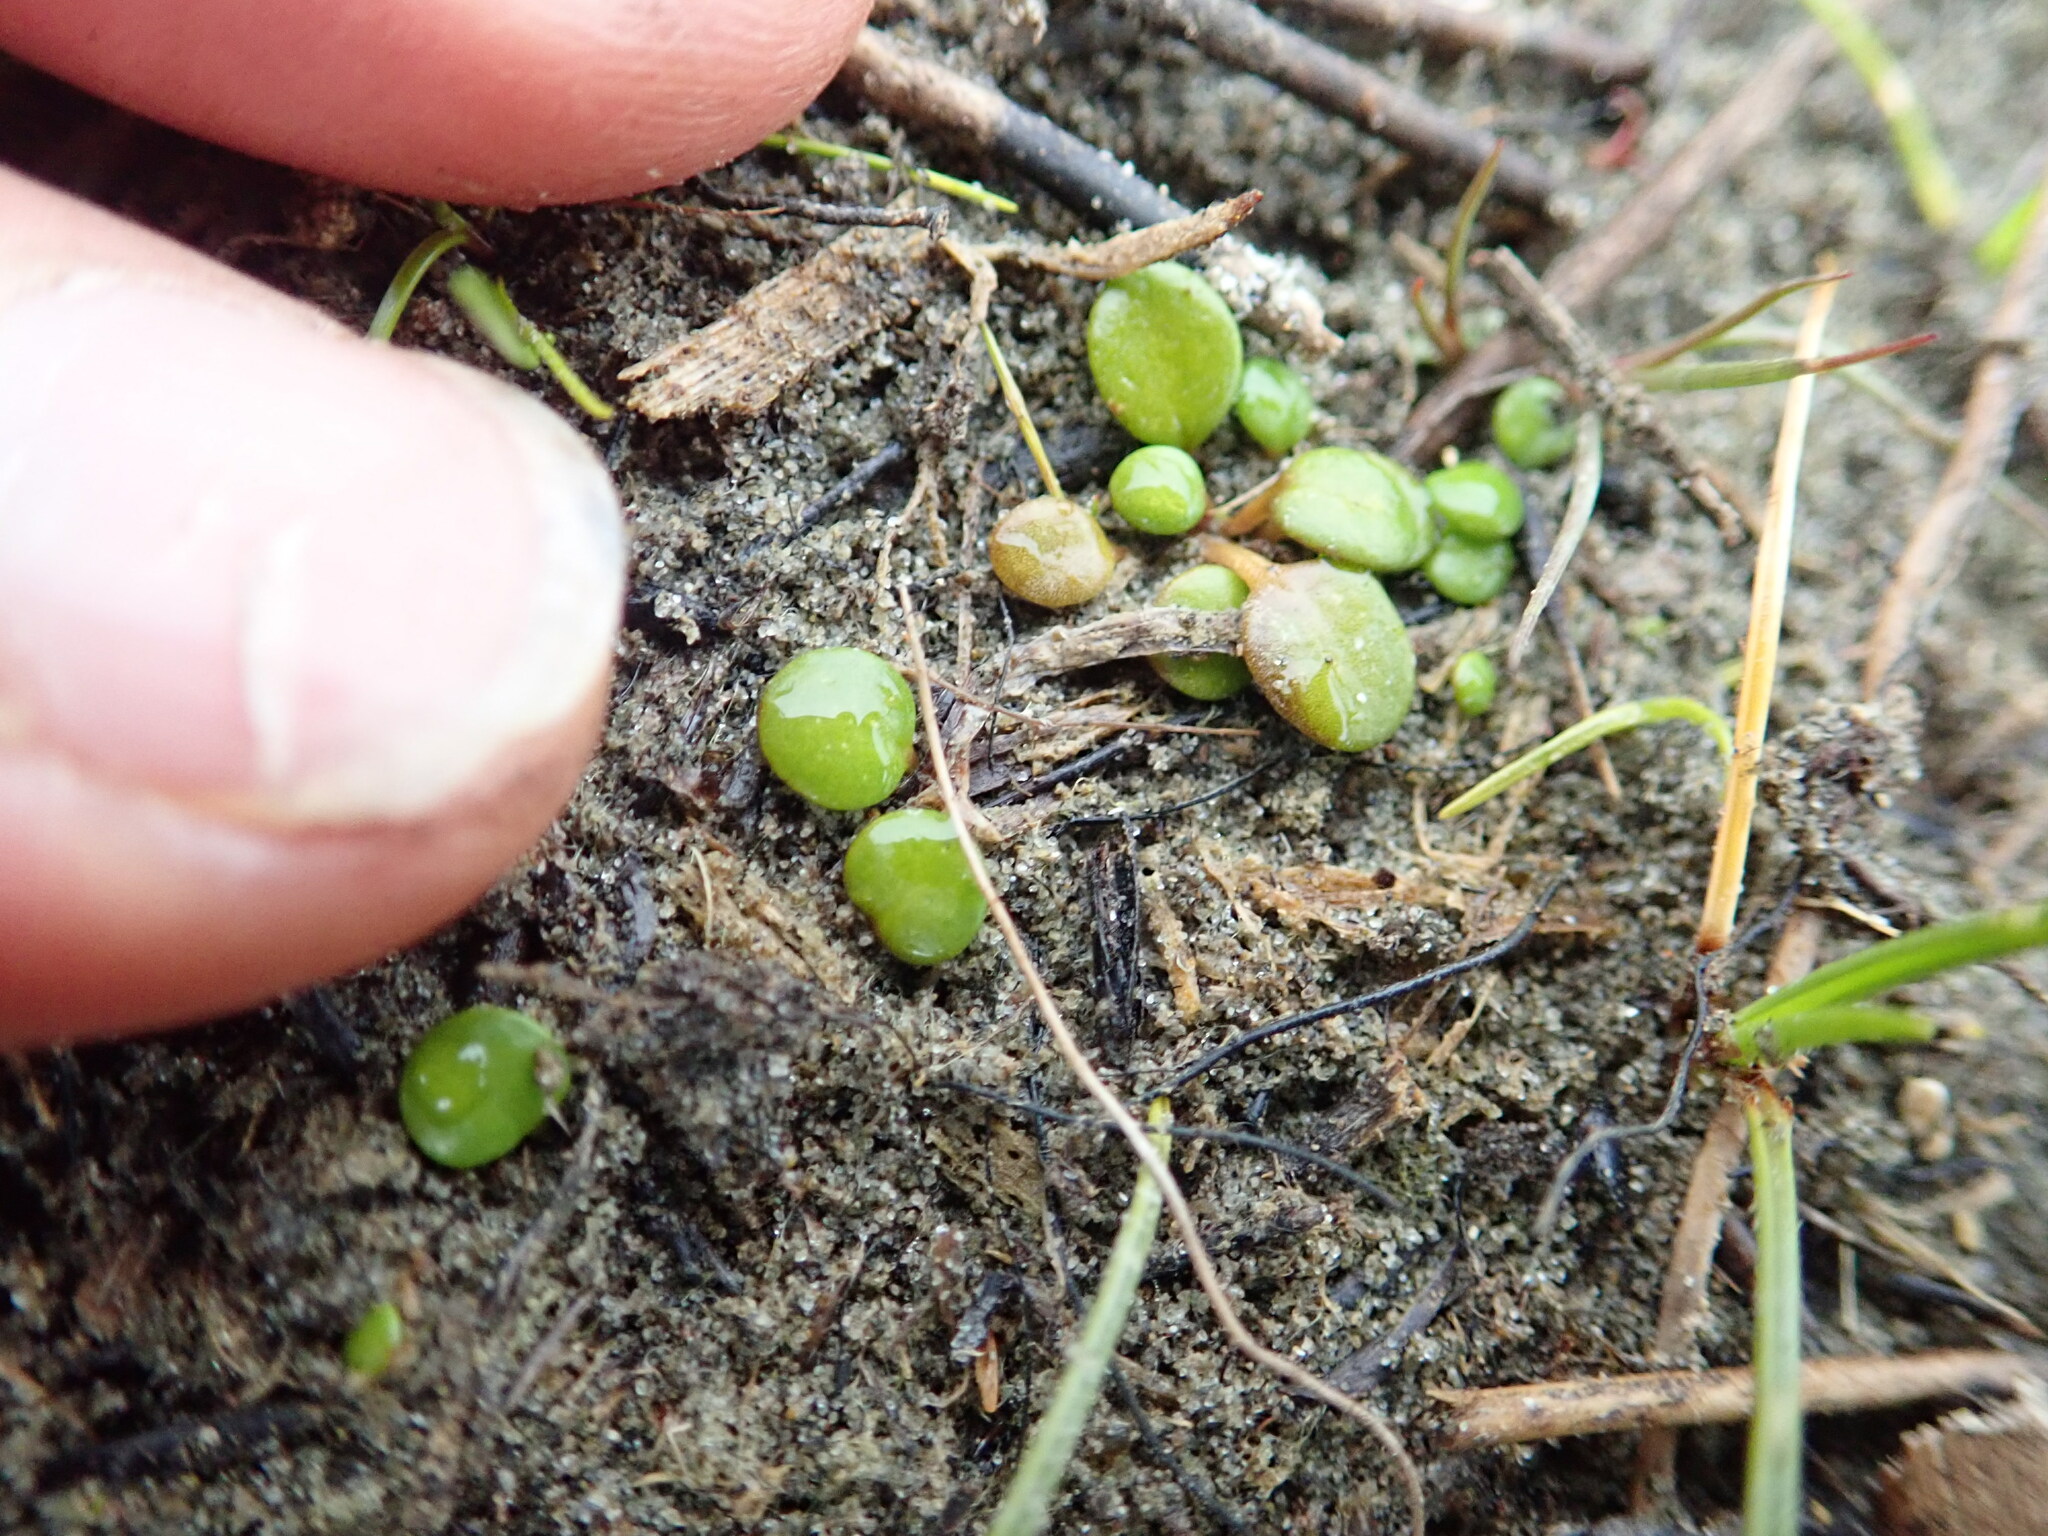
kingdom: Plantae
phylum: Tracheophyta
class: Magnoliopsida
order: Asterales
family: Goodeniaceae
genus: Goodenia
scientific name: Goodenia heenanii
